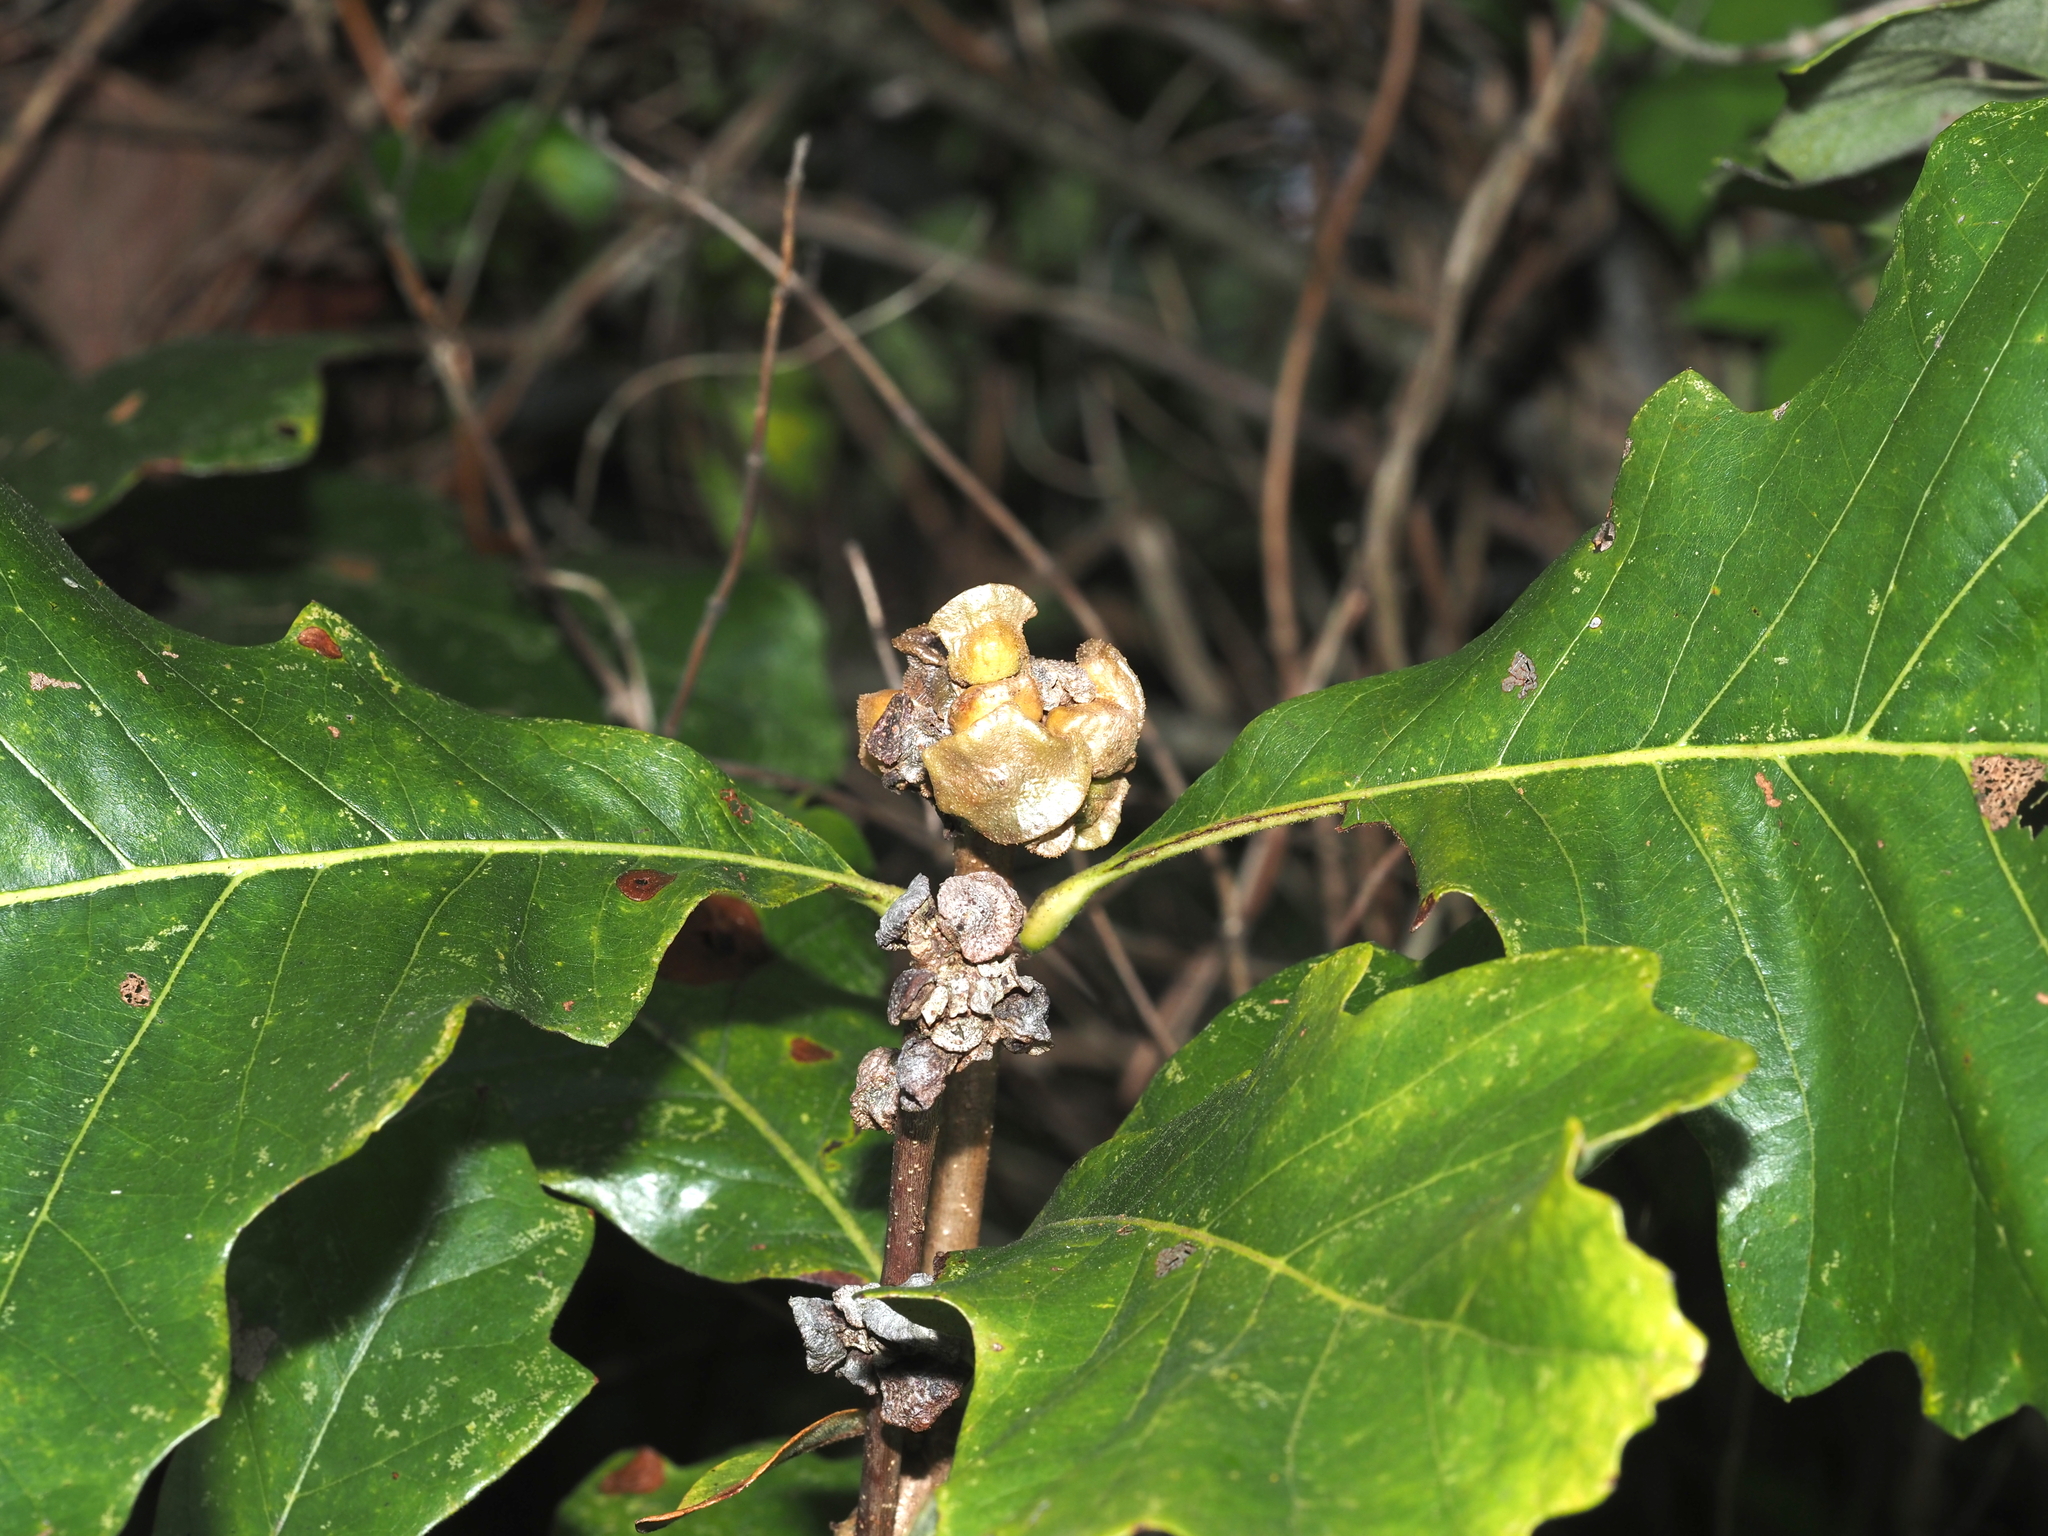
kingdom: Animalia
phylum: Arthropoda
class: Insecta
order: Hymenoptera
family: Cynipidae
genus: Andricus
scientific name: Andricus
